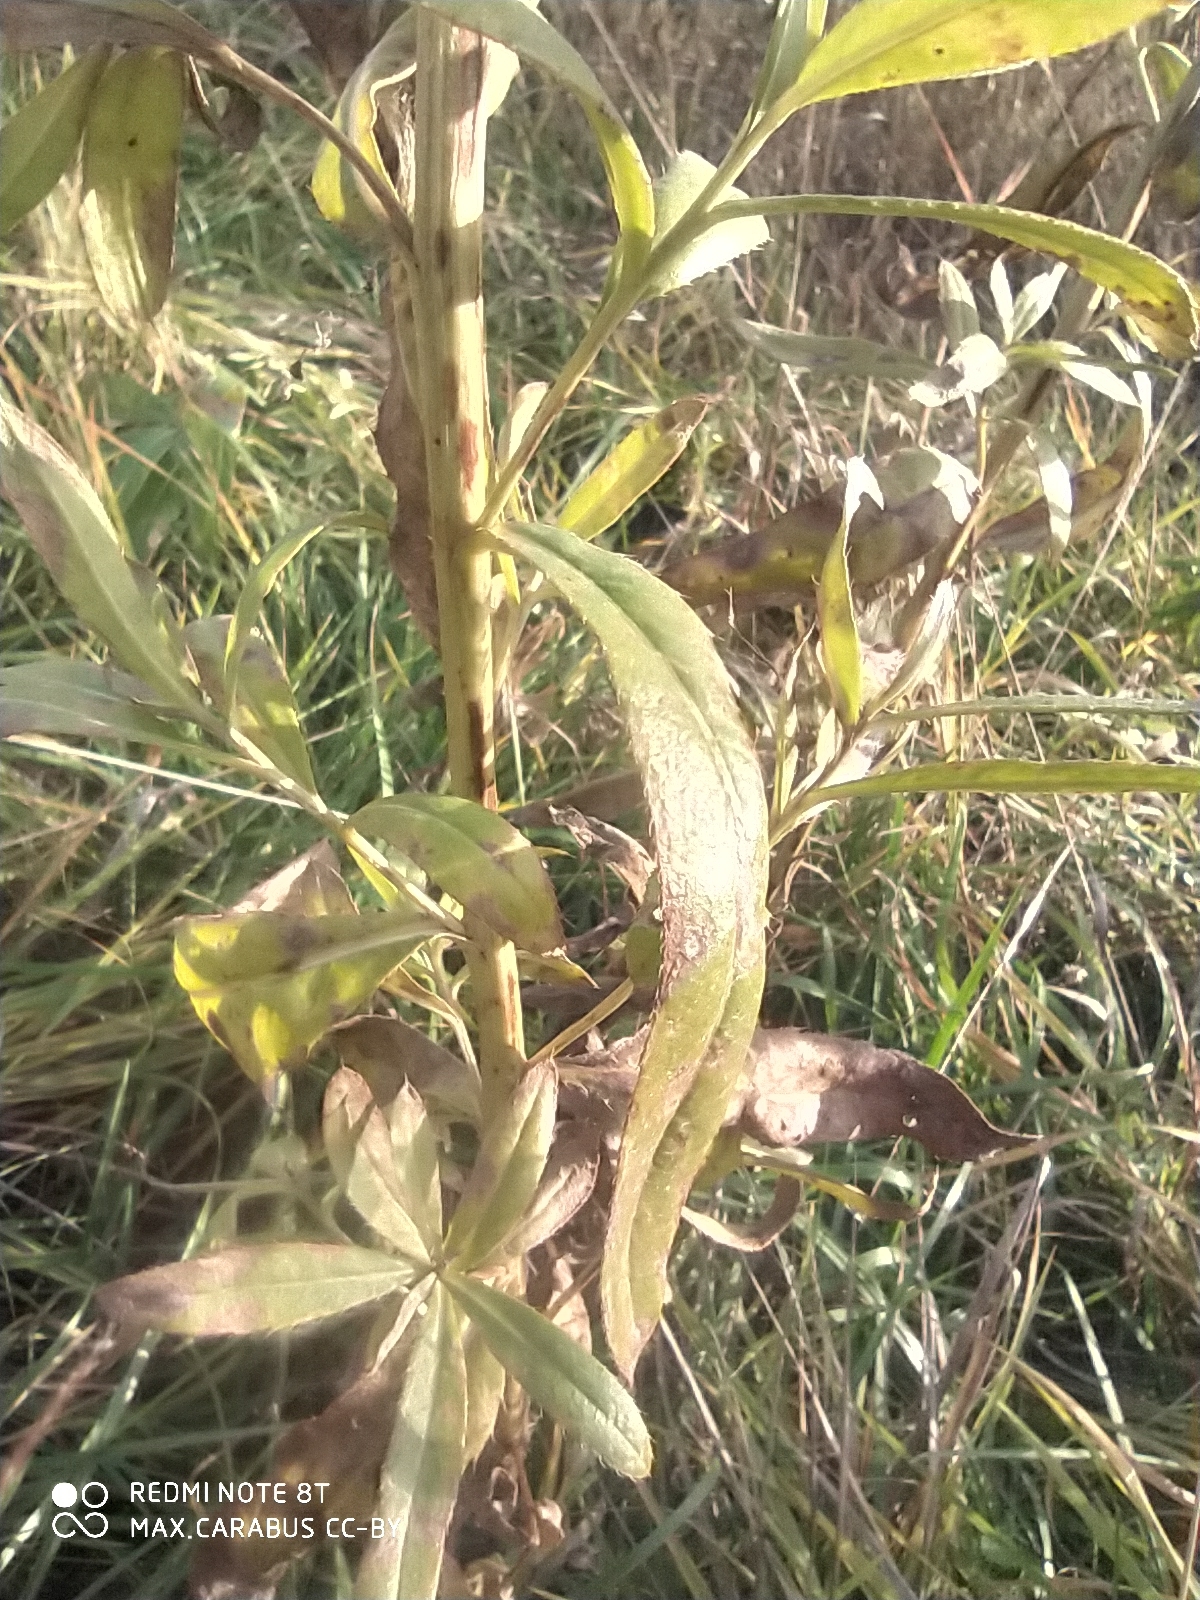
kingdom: Plantae
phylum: Tracheophyta
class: Magnoliopsida
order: Asterales
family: Asteraceae
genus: Cirsium
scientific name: Cirsium arvense
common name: Creeping thistle
